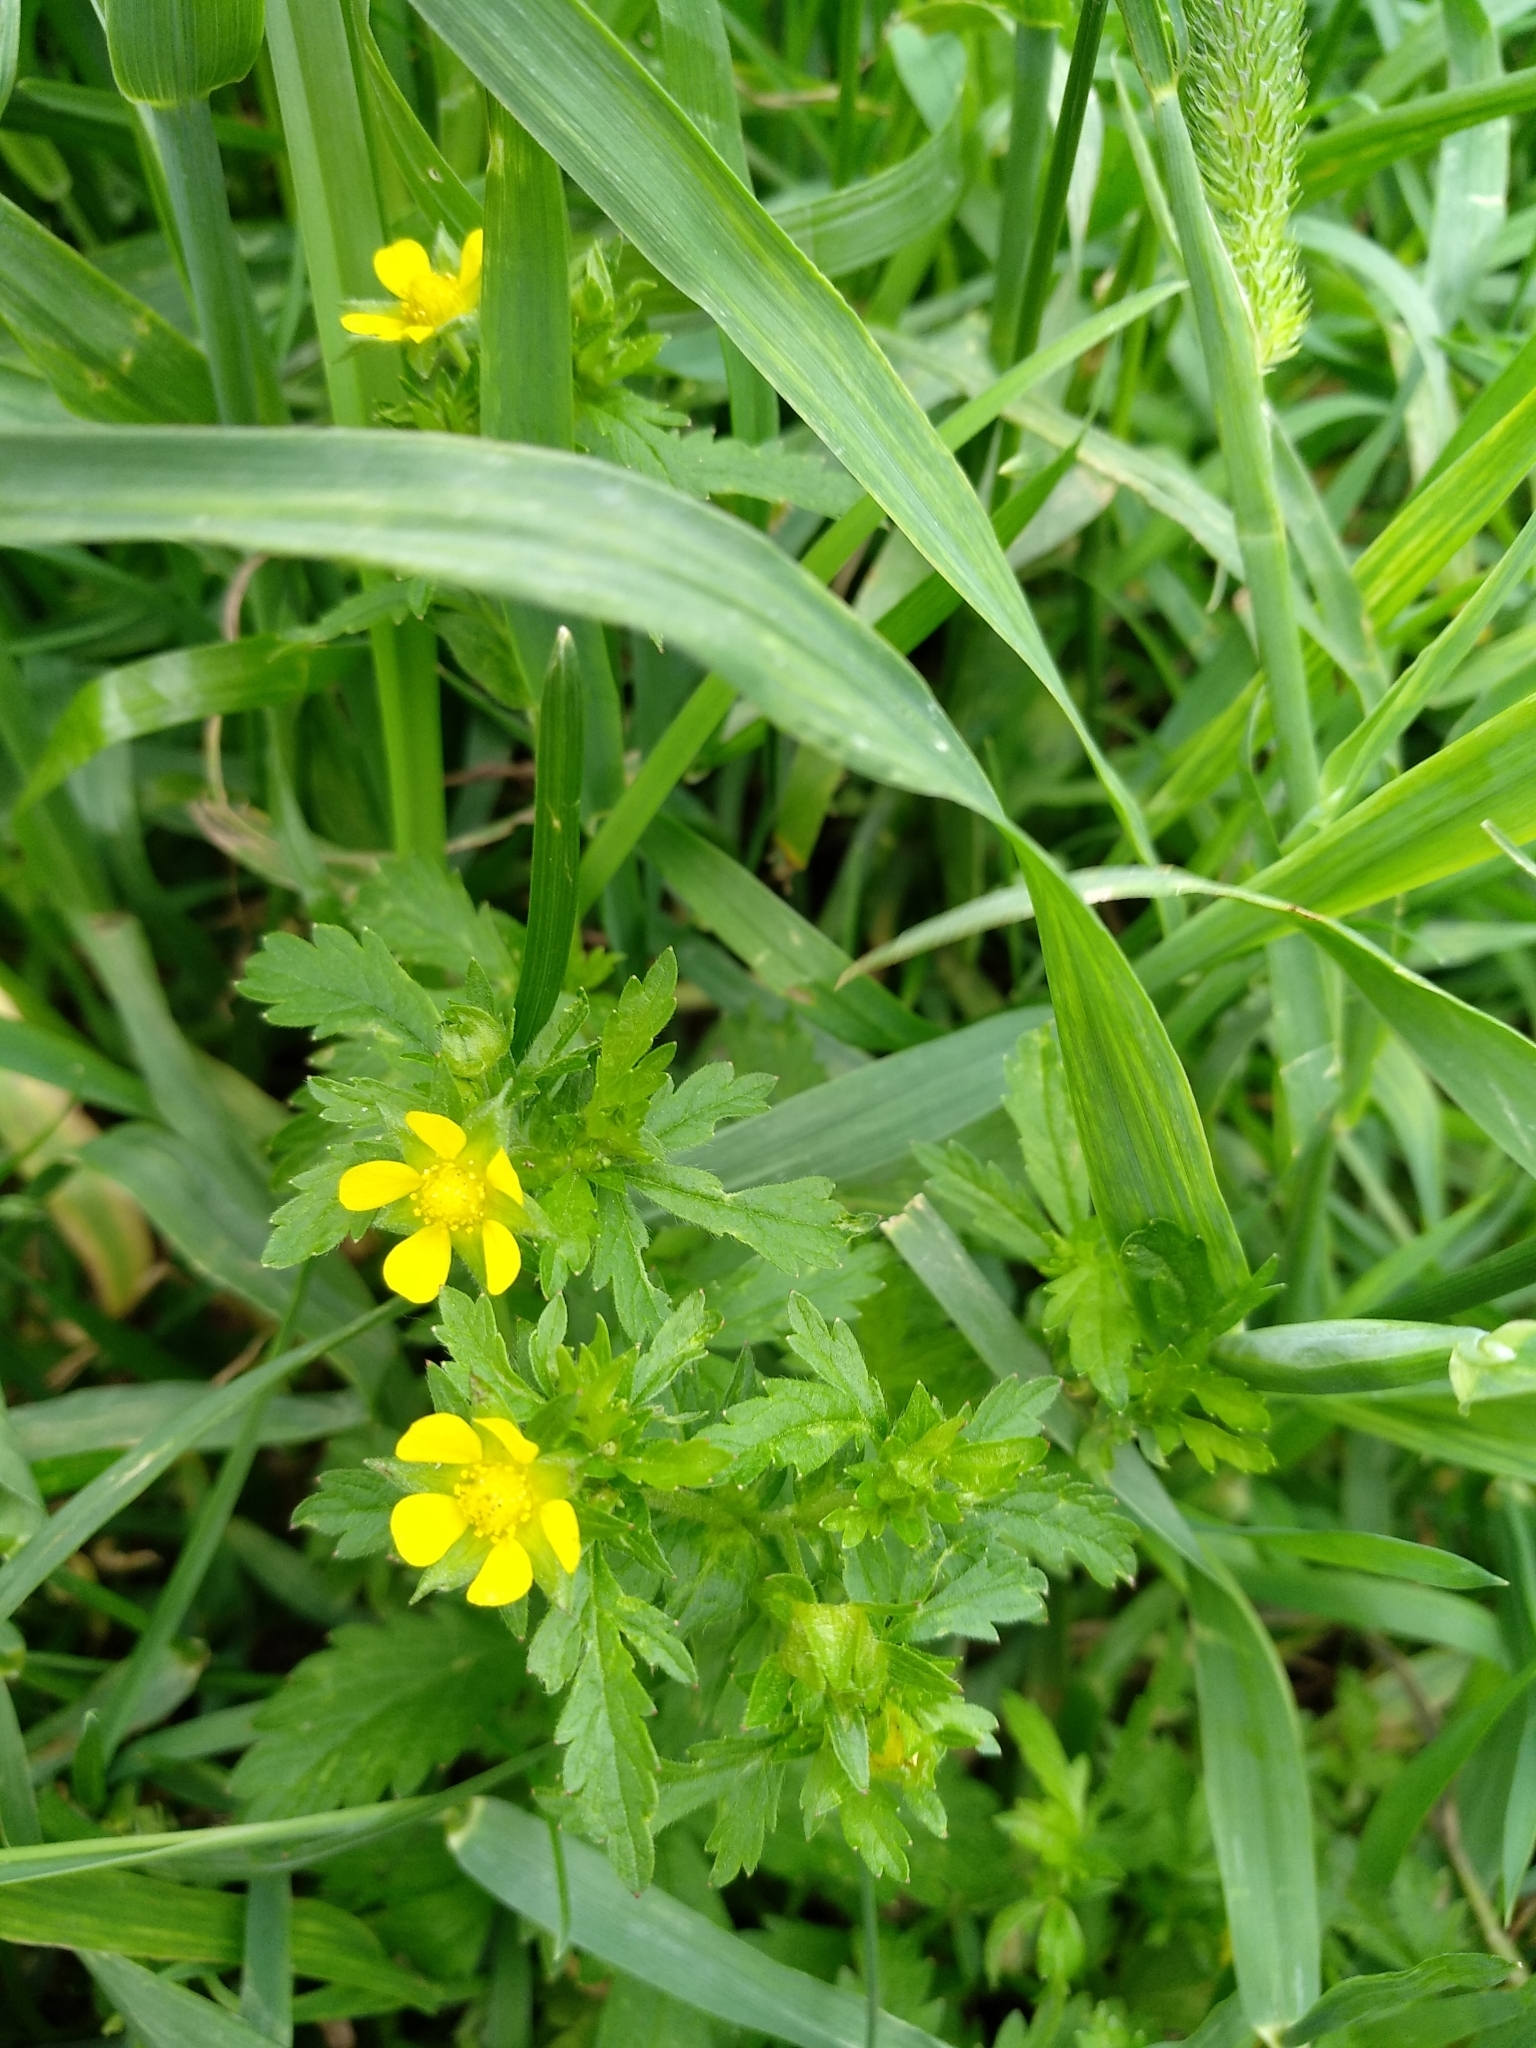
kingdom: Plantae
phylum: Tracheophyta
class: Magnoliopsida
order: Rosales
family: Rosaceae
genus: Potentilla
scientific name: Potentilla norvegica
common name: Ternate-leaved cinquefoil
